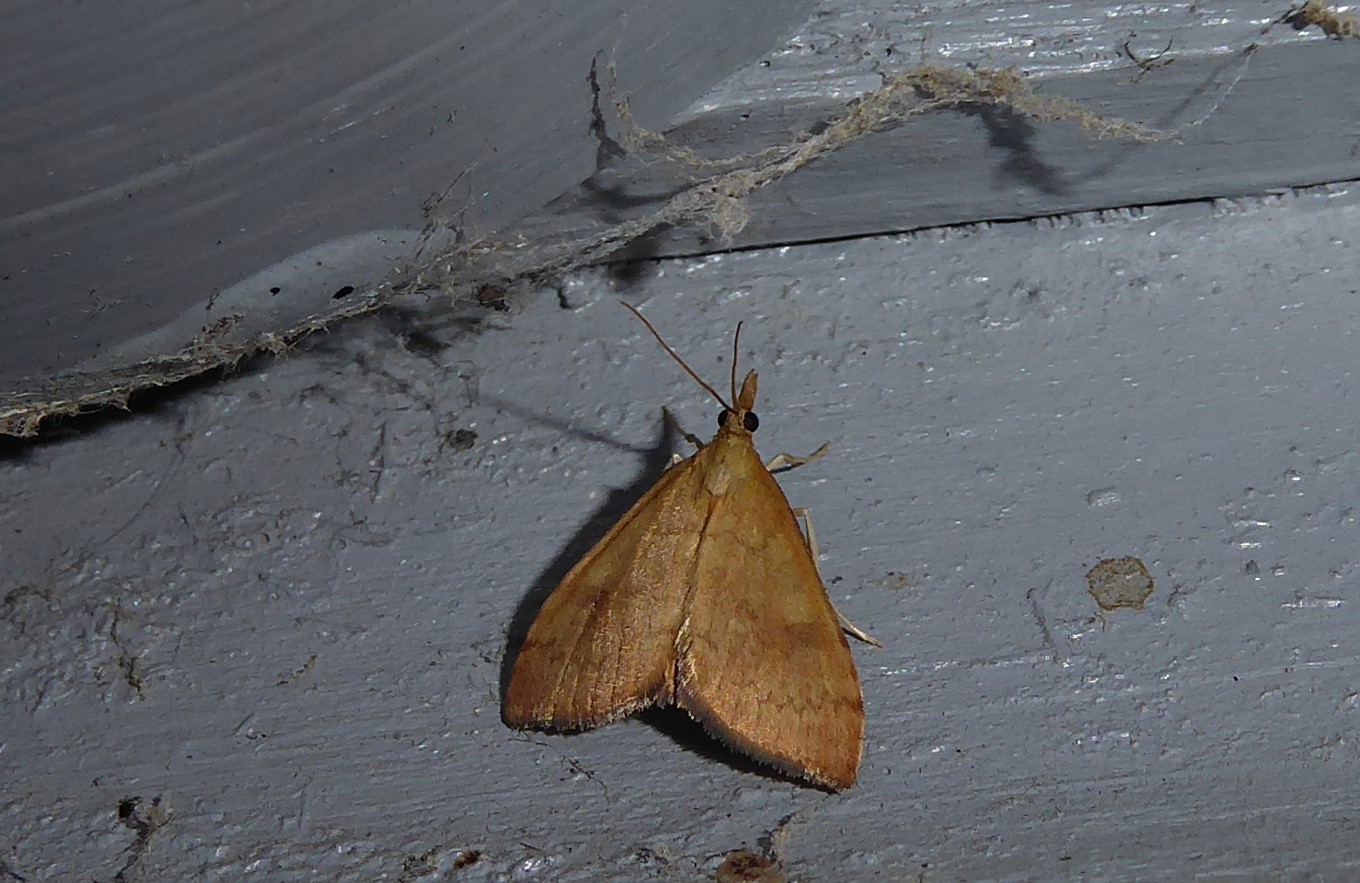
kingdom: Animalia
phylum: Arthropoda
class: Insecta
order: Lepidoptera
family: Crambidae
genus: Udea
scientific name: Udea Mnesictena flavidalis
